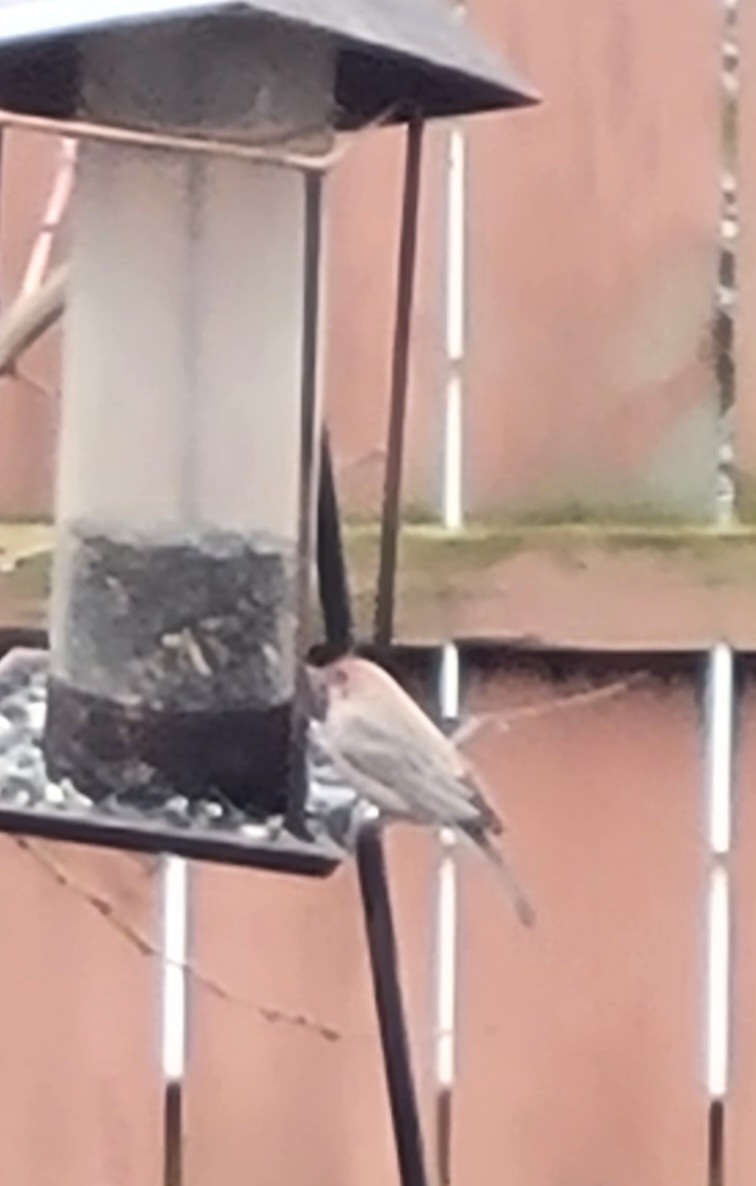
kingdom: Animalia
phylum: Chordata
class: Aves
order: Passeriformes
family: Fringillidae
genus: Haemorhous
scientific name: Haemorhous mexicanus
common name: House finch
